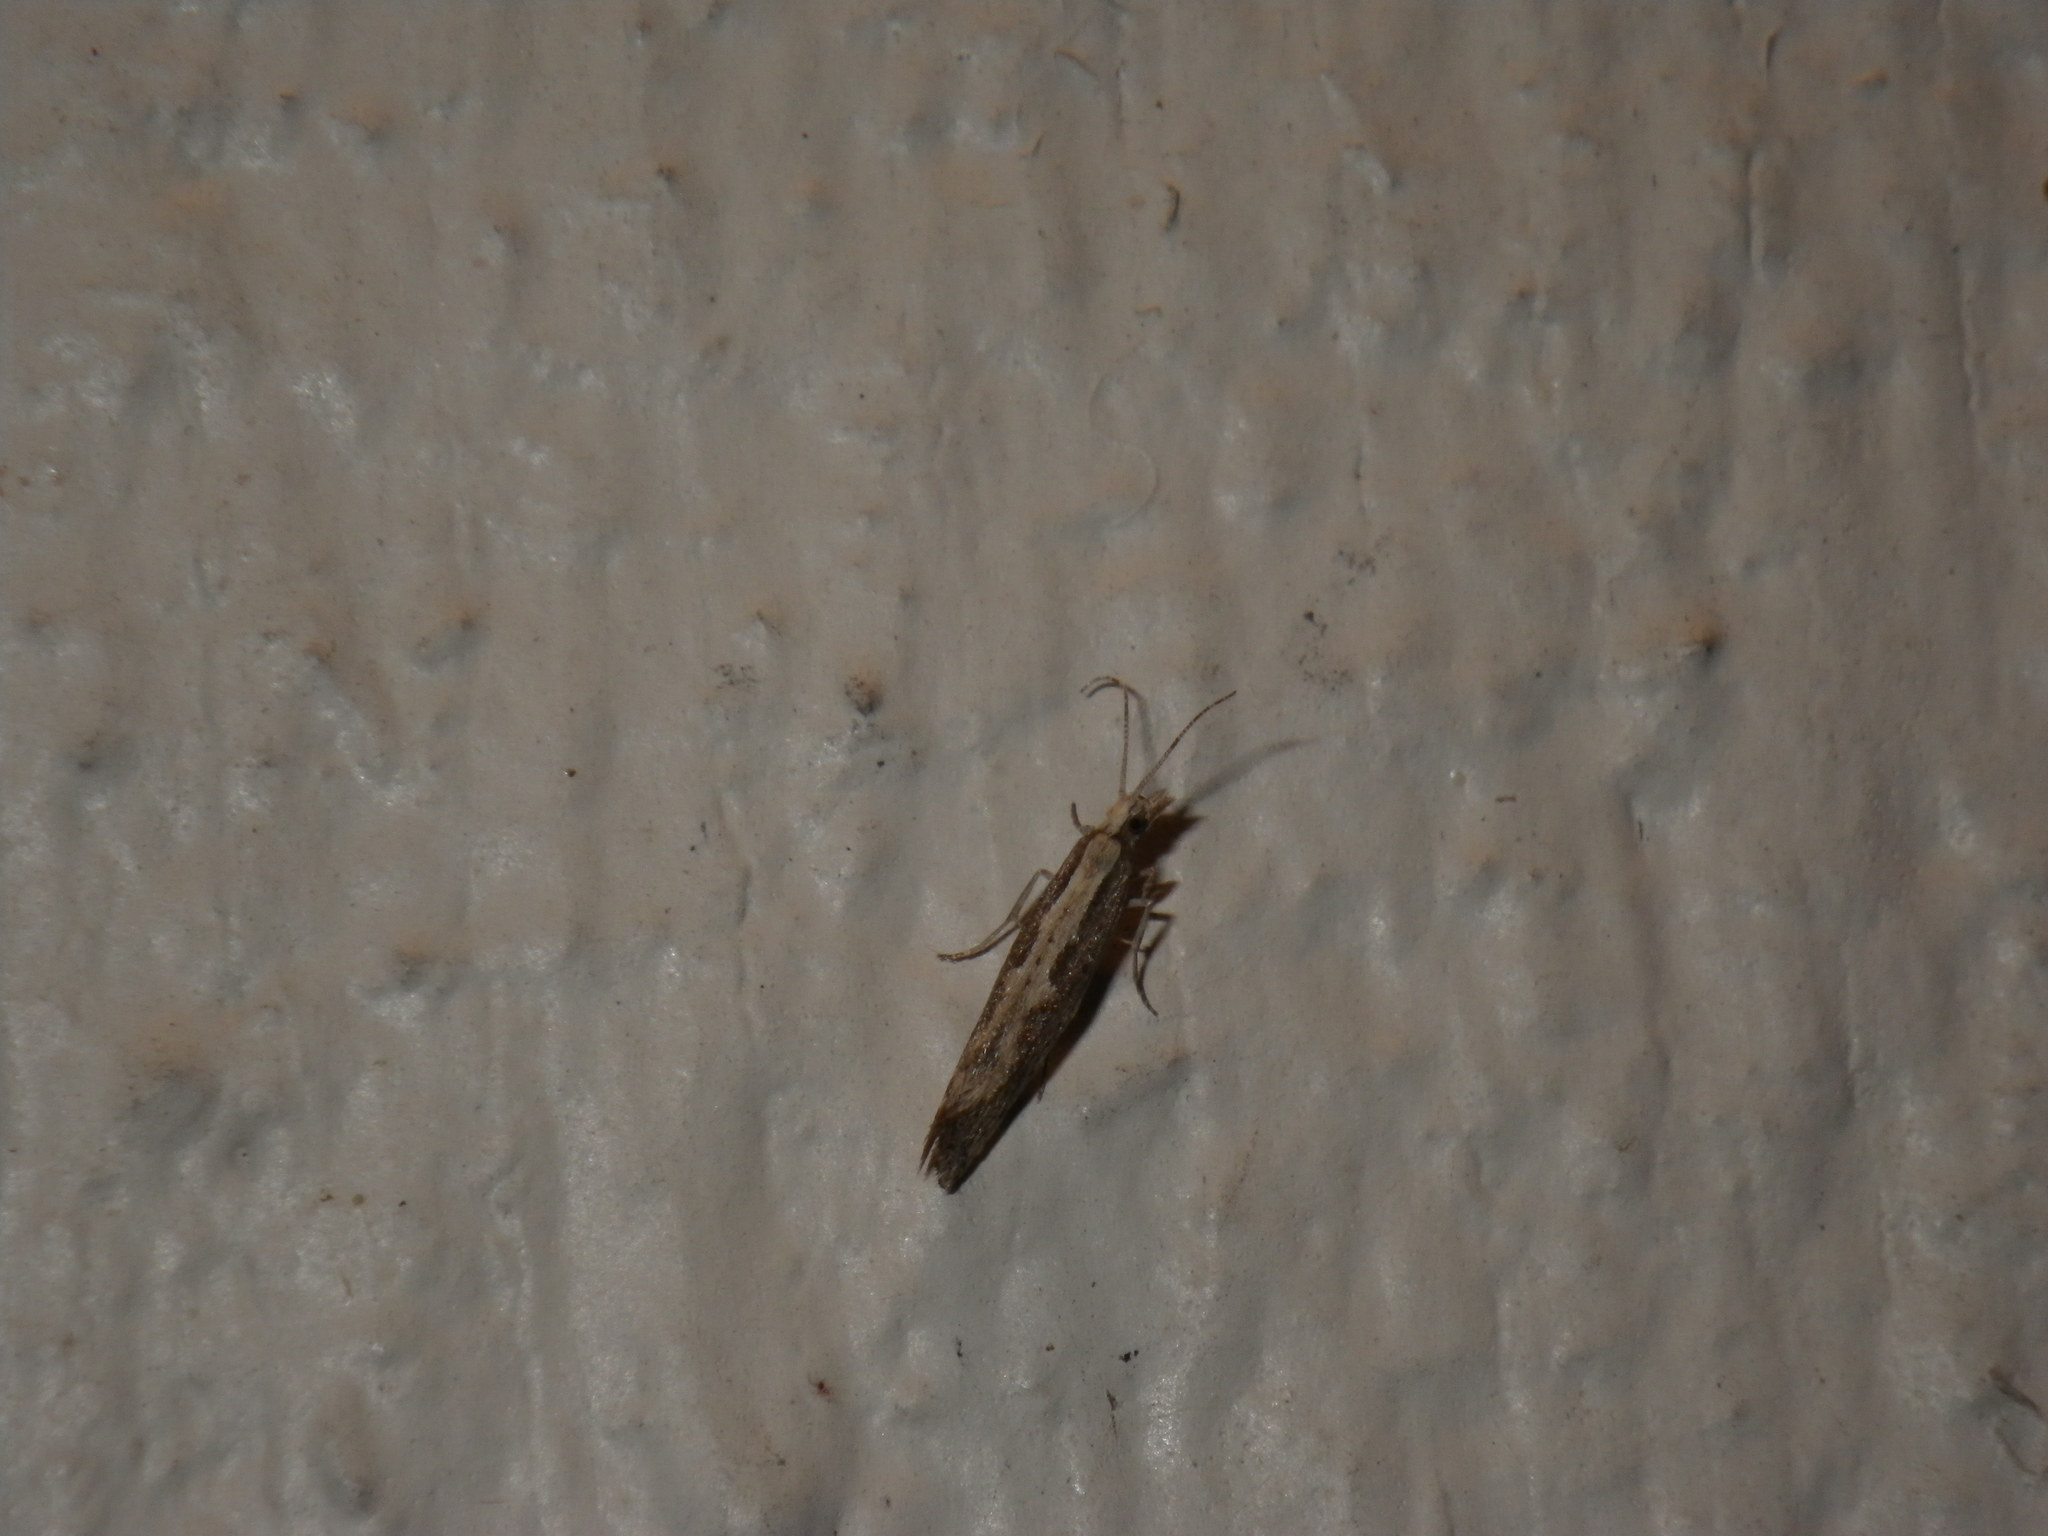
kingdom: Animalia
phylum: Arthropoda
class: Insecta
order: Lepidoptera
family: Plutellidae
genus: Plutella
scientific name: Plutella xylostella
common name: Diamond-back moth
